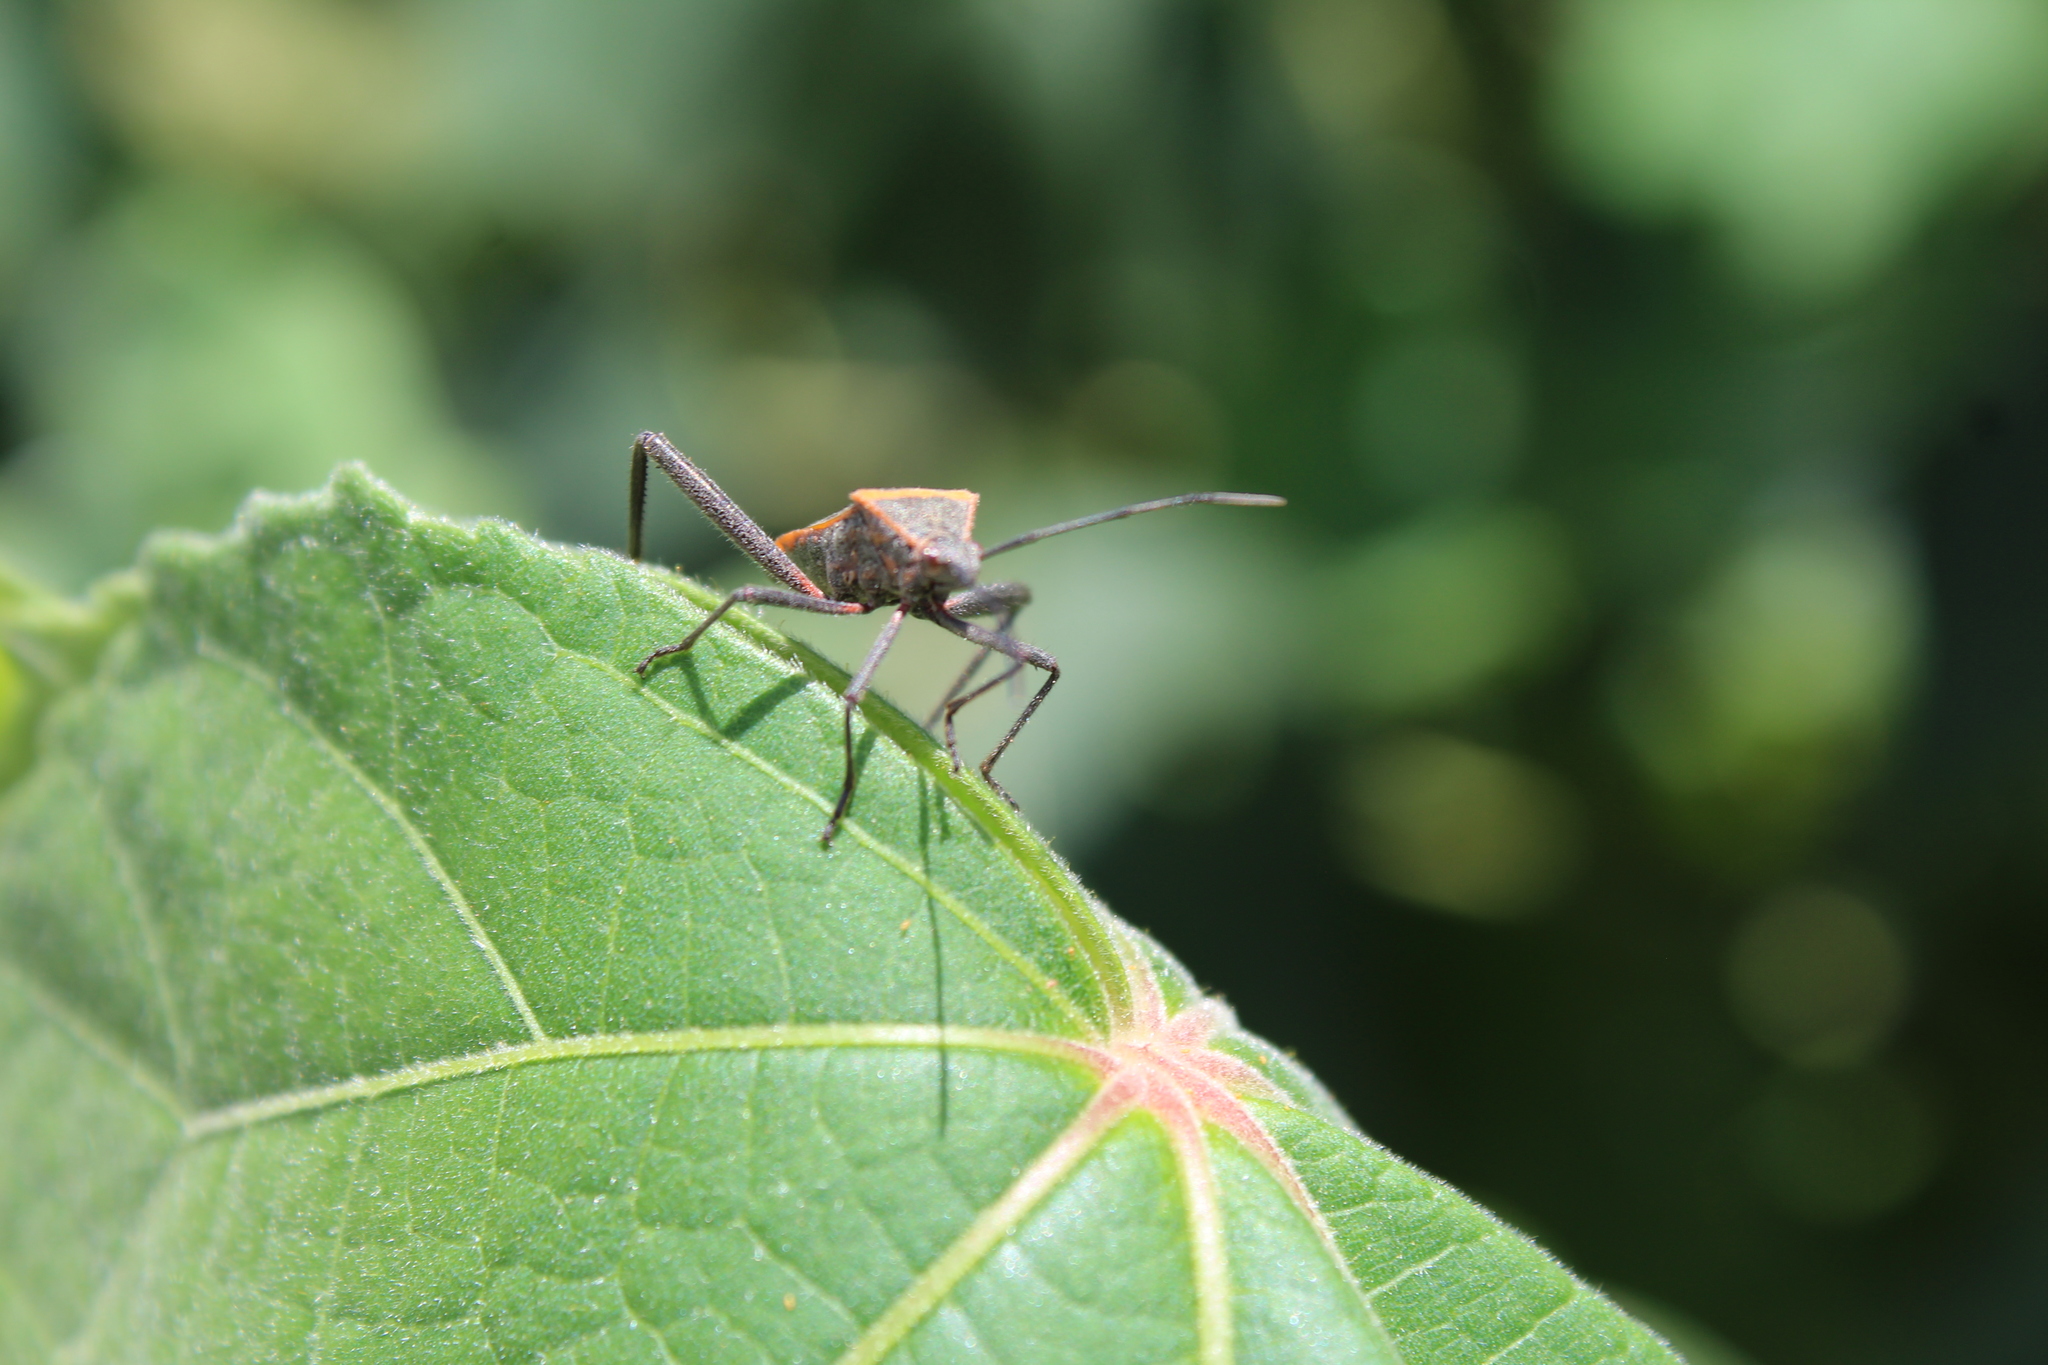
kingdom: Animalia
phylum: Arthropoda
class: Insecta
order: Hemiptera
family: Coreidae
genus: Phthiacnemia
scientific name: Phthiacnemia picta
